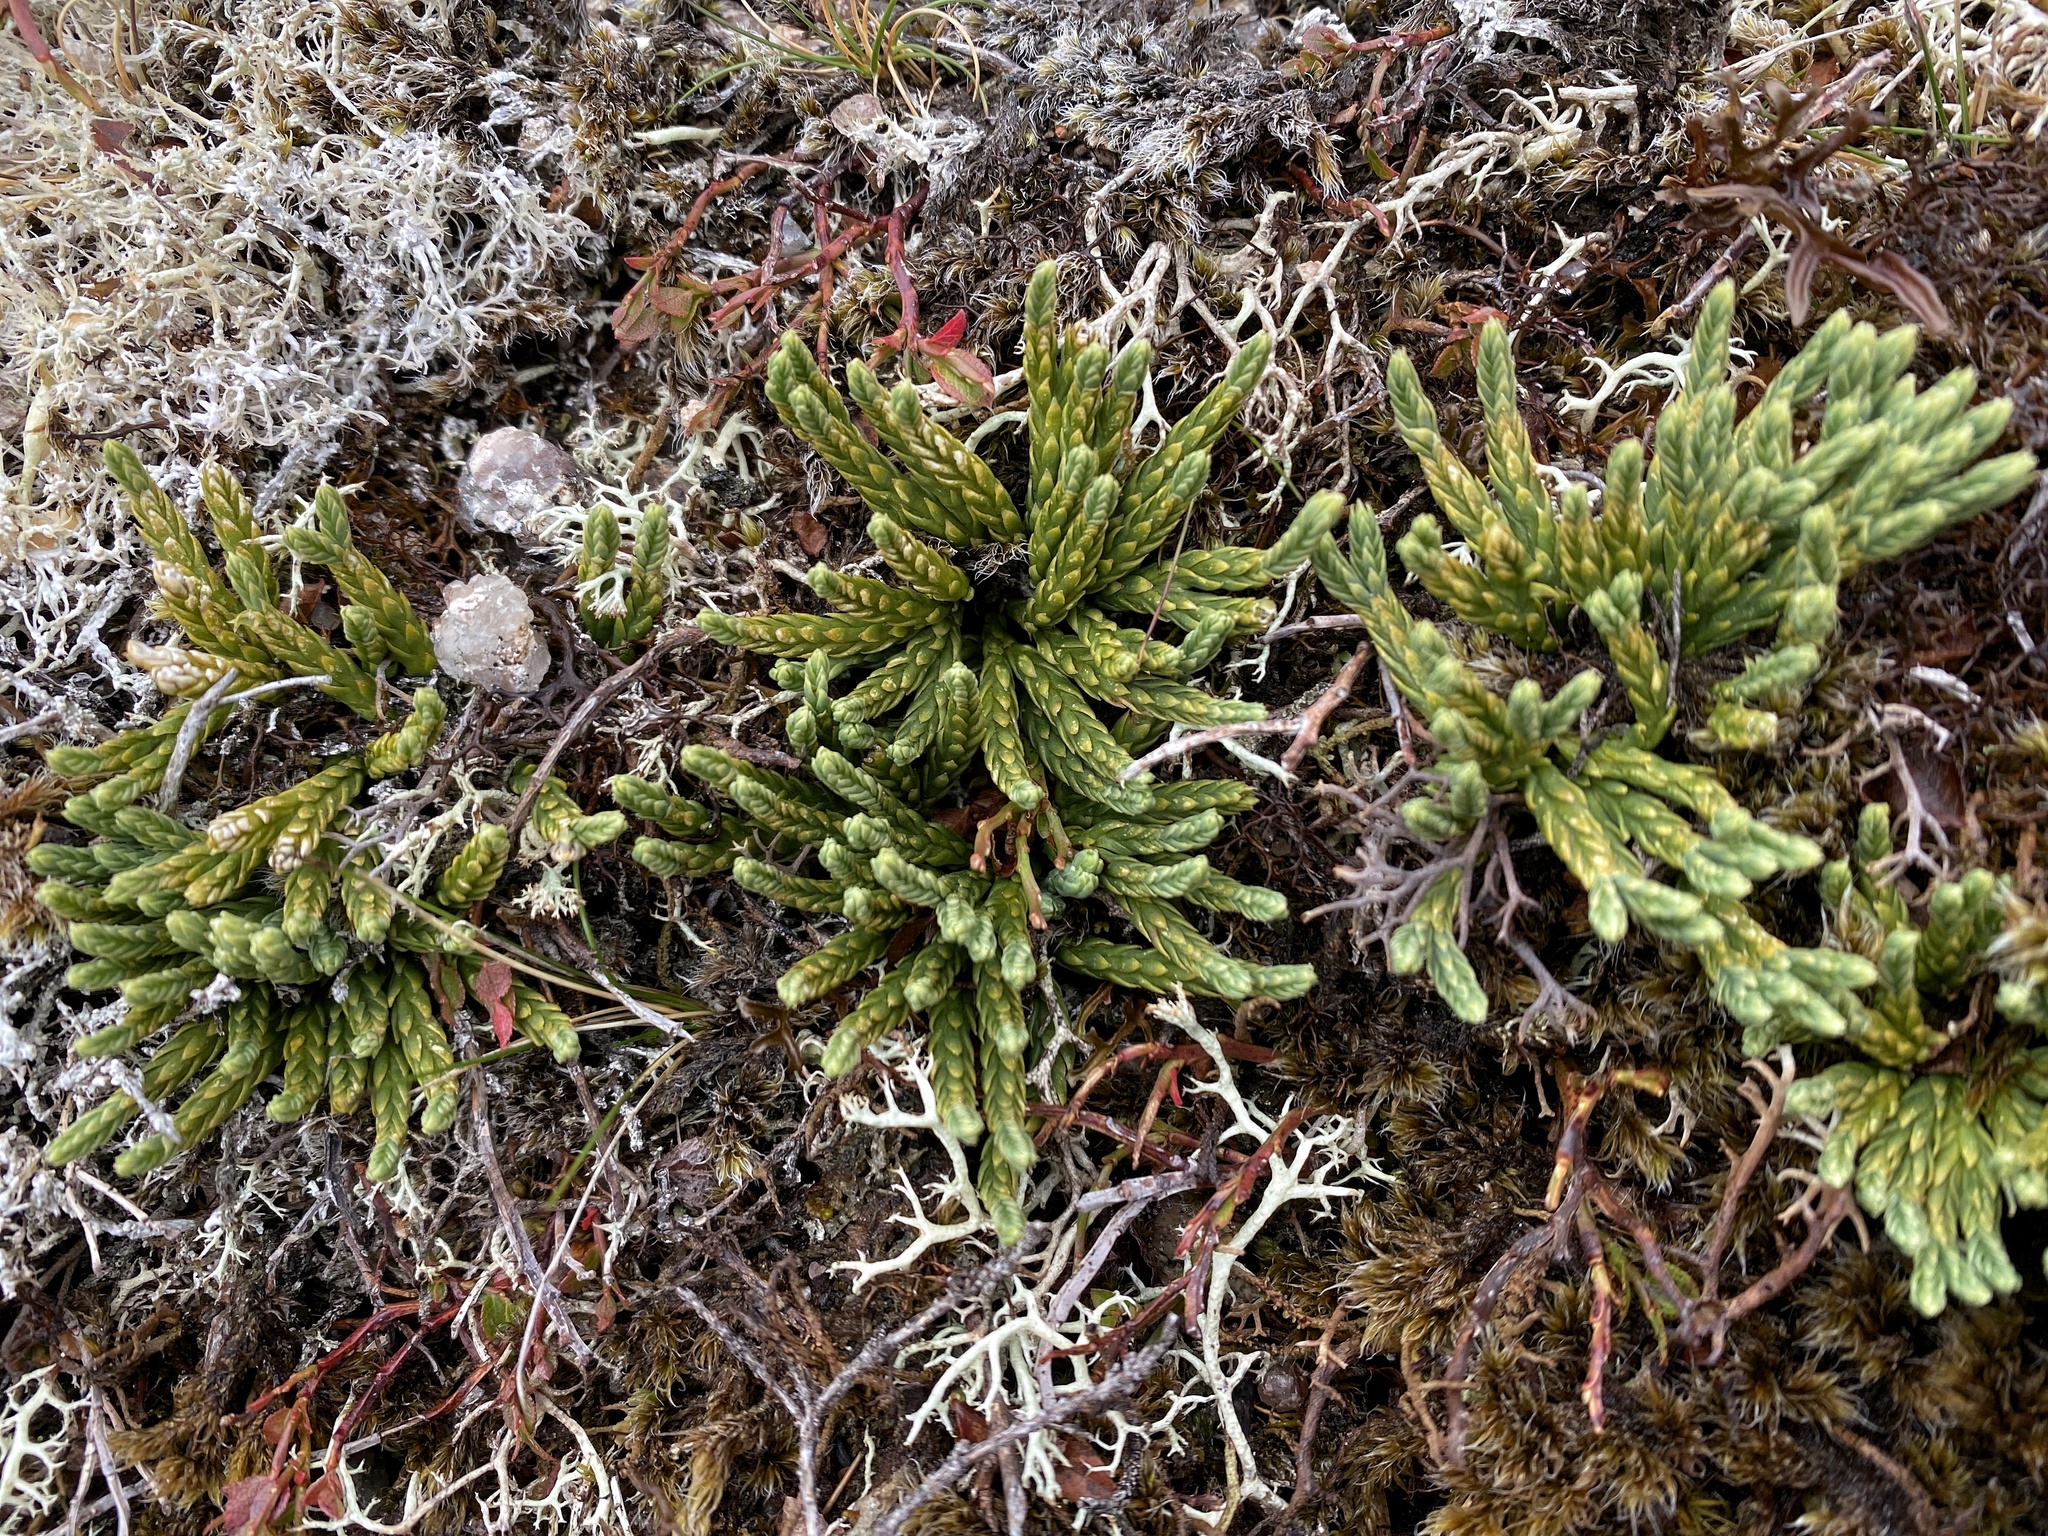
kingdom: Plantae
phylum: Tracheophyta
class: Lycopodiopsida
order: Lycopodiales
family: Lycopodiaceae
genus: Diphasiastrum
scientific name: Diphasiastrum alpinum
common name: Alpine clubmoss
